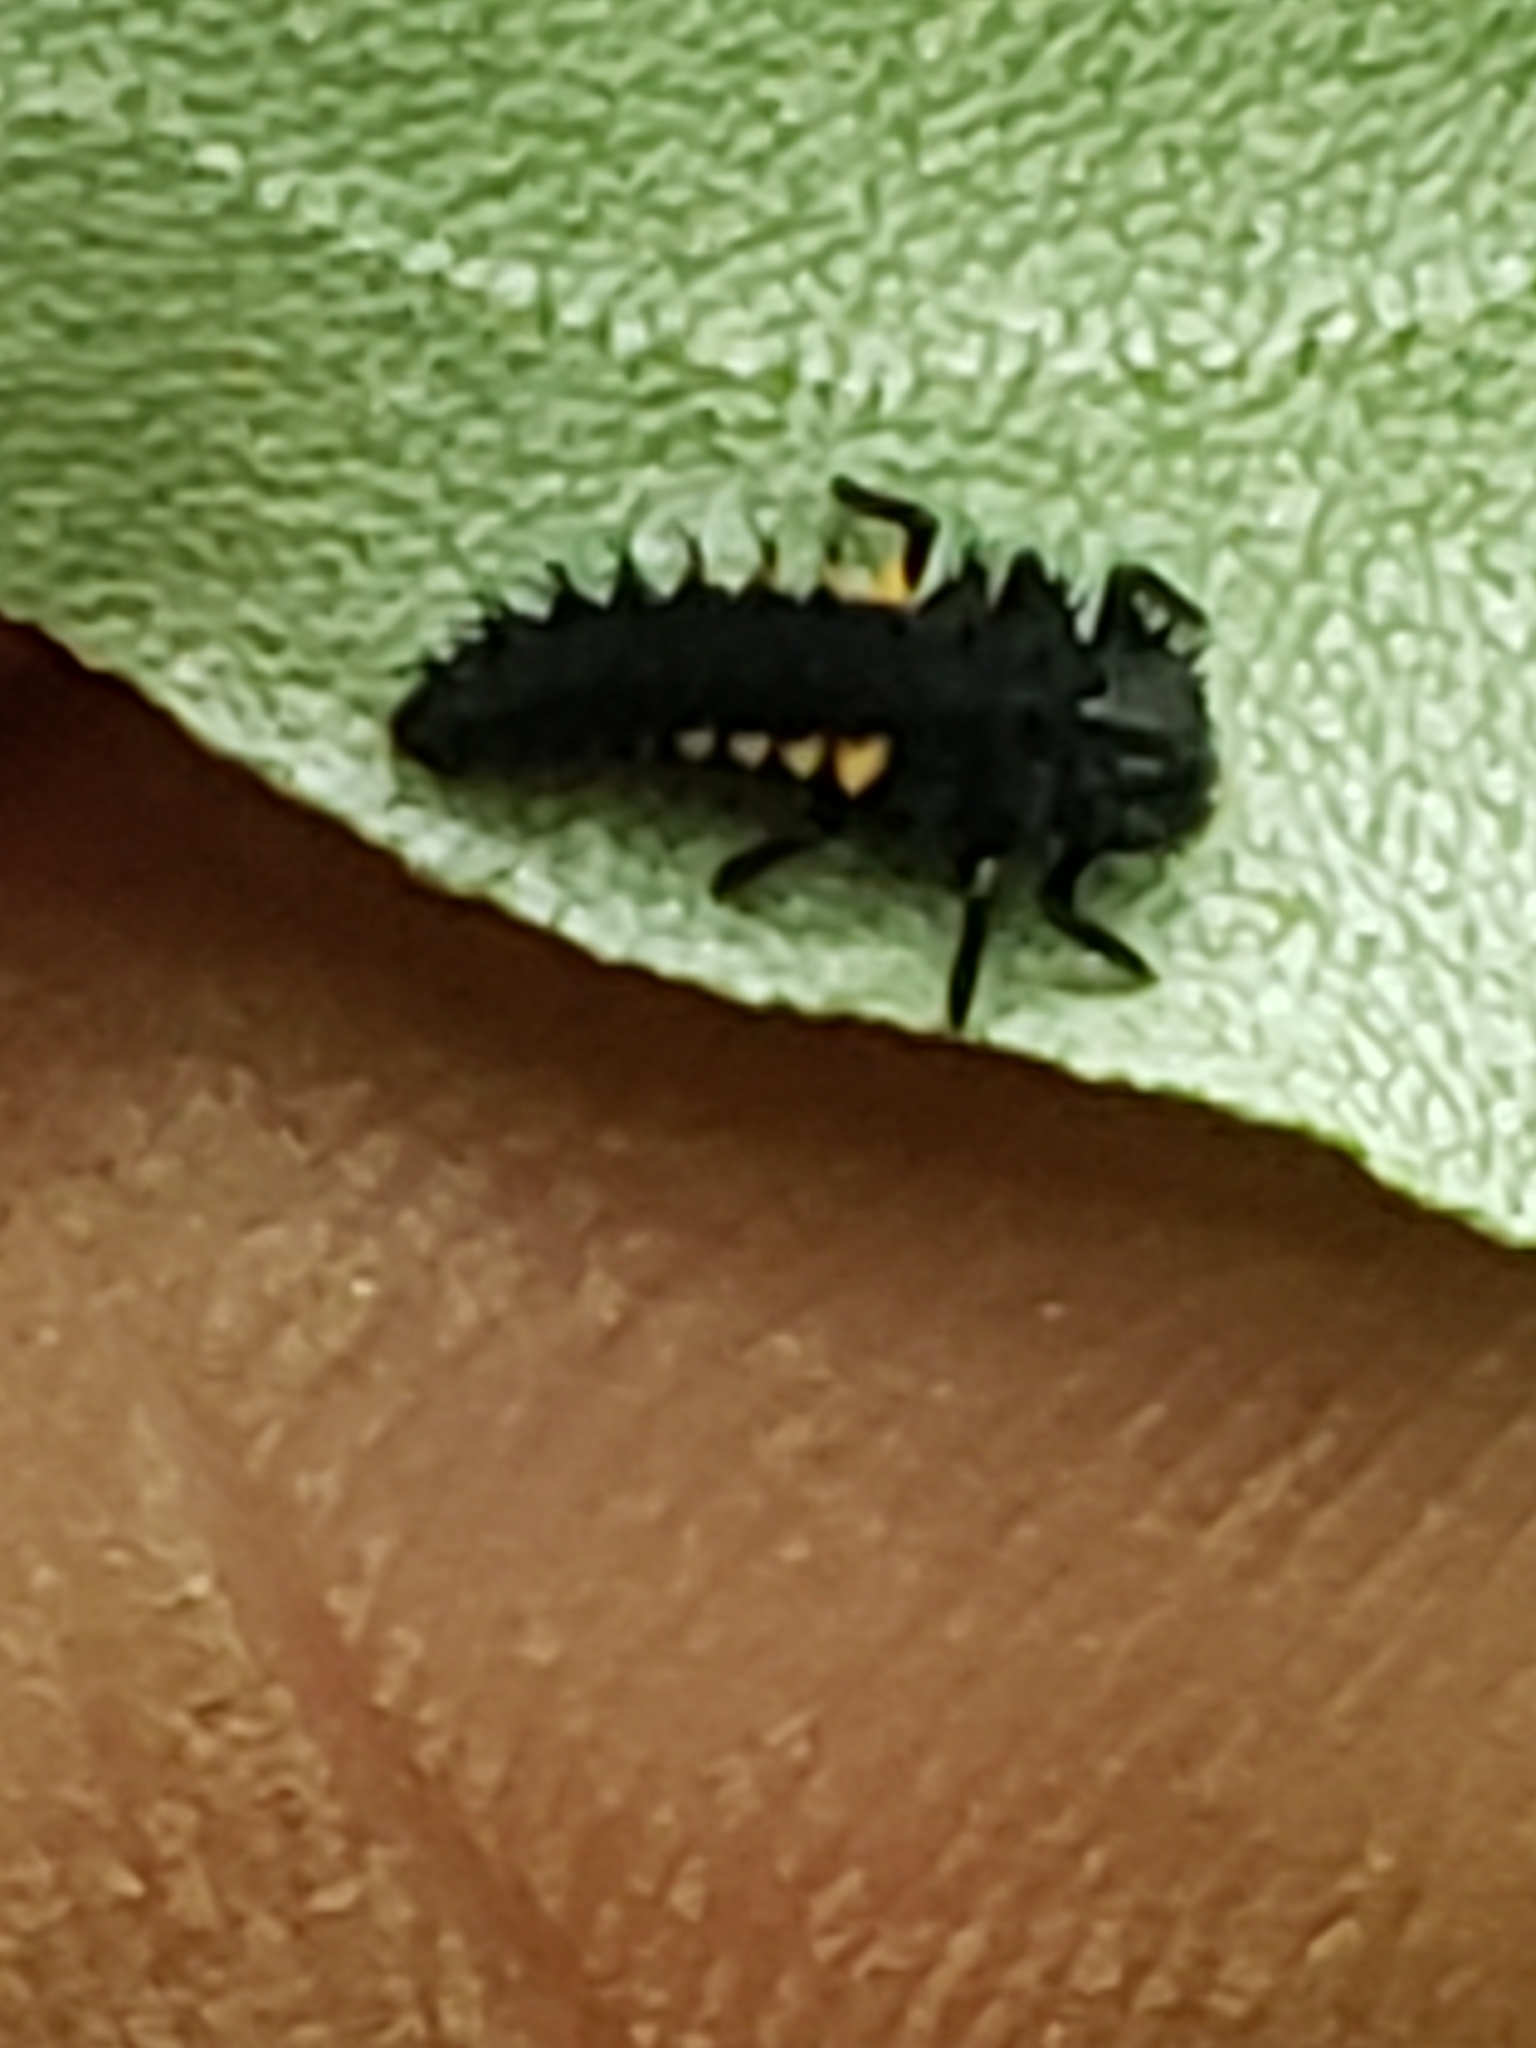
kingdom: Animalia
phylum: Arthropoda
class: Insecta
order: Coleoptera
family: Coccinellidae
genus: Harmonia
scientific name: Harmonia axyridis
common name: Harlequin ladybird
